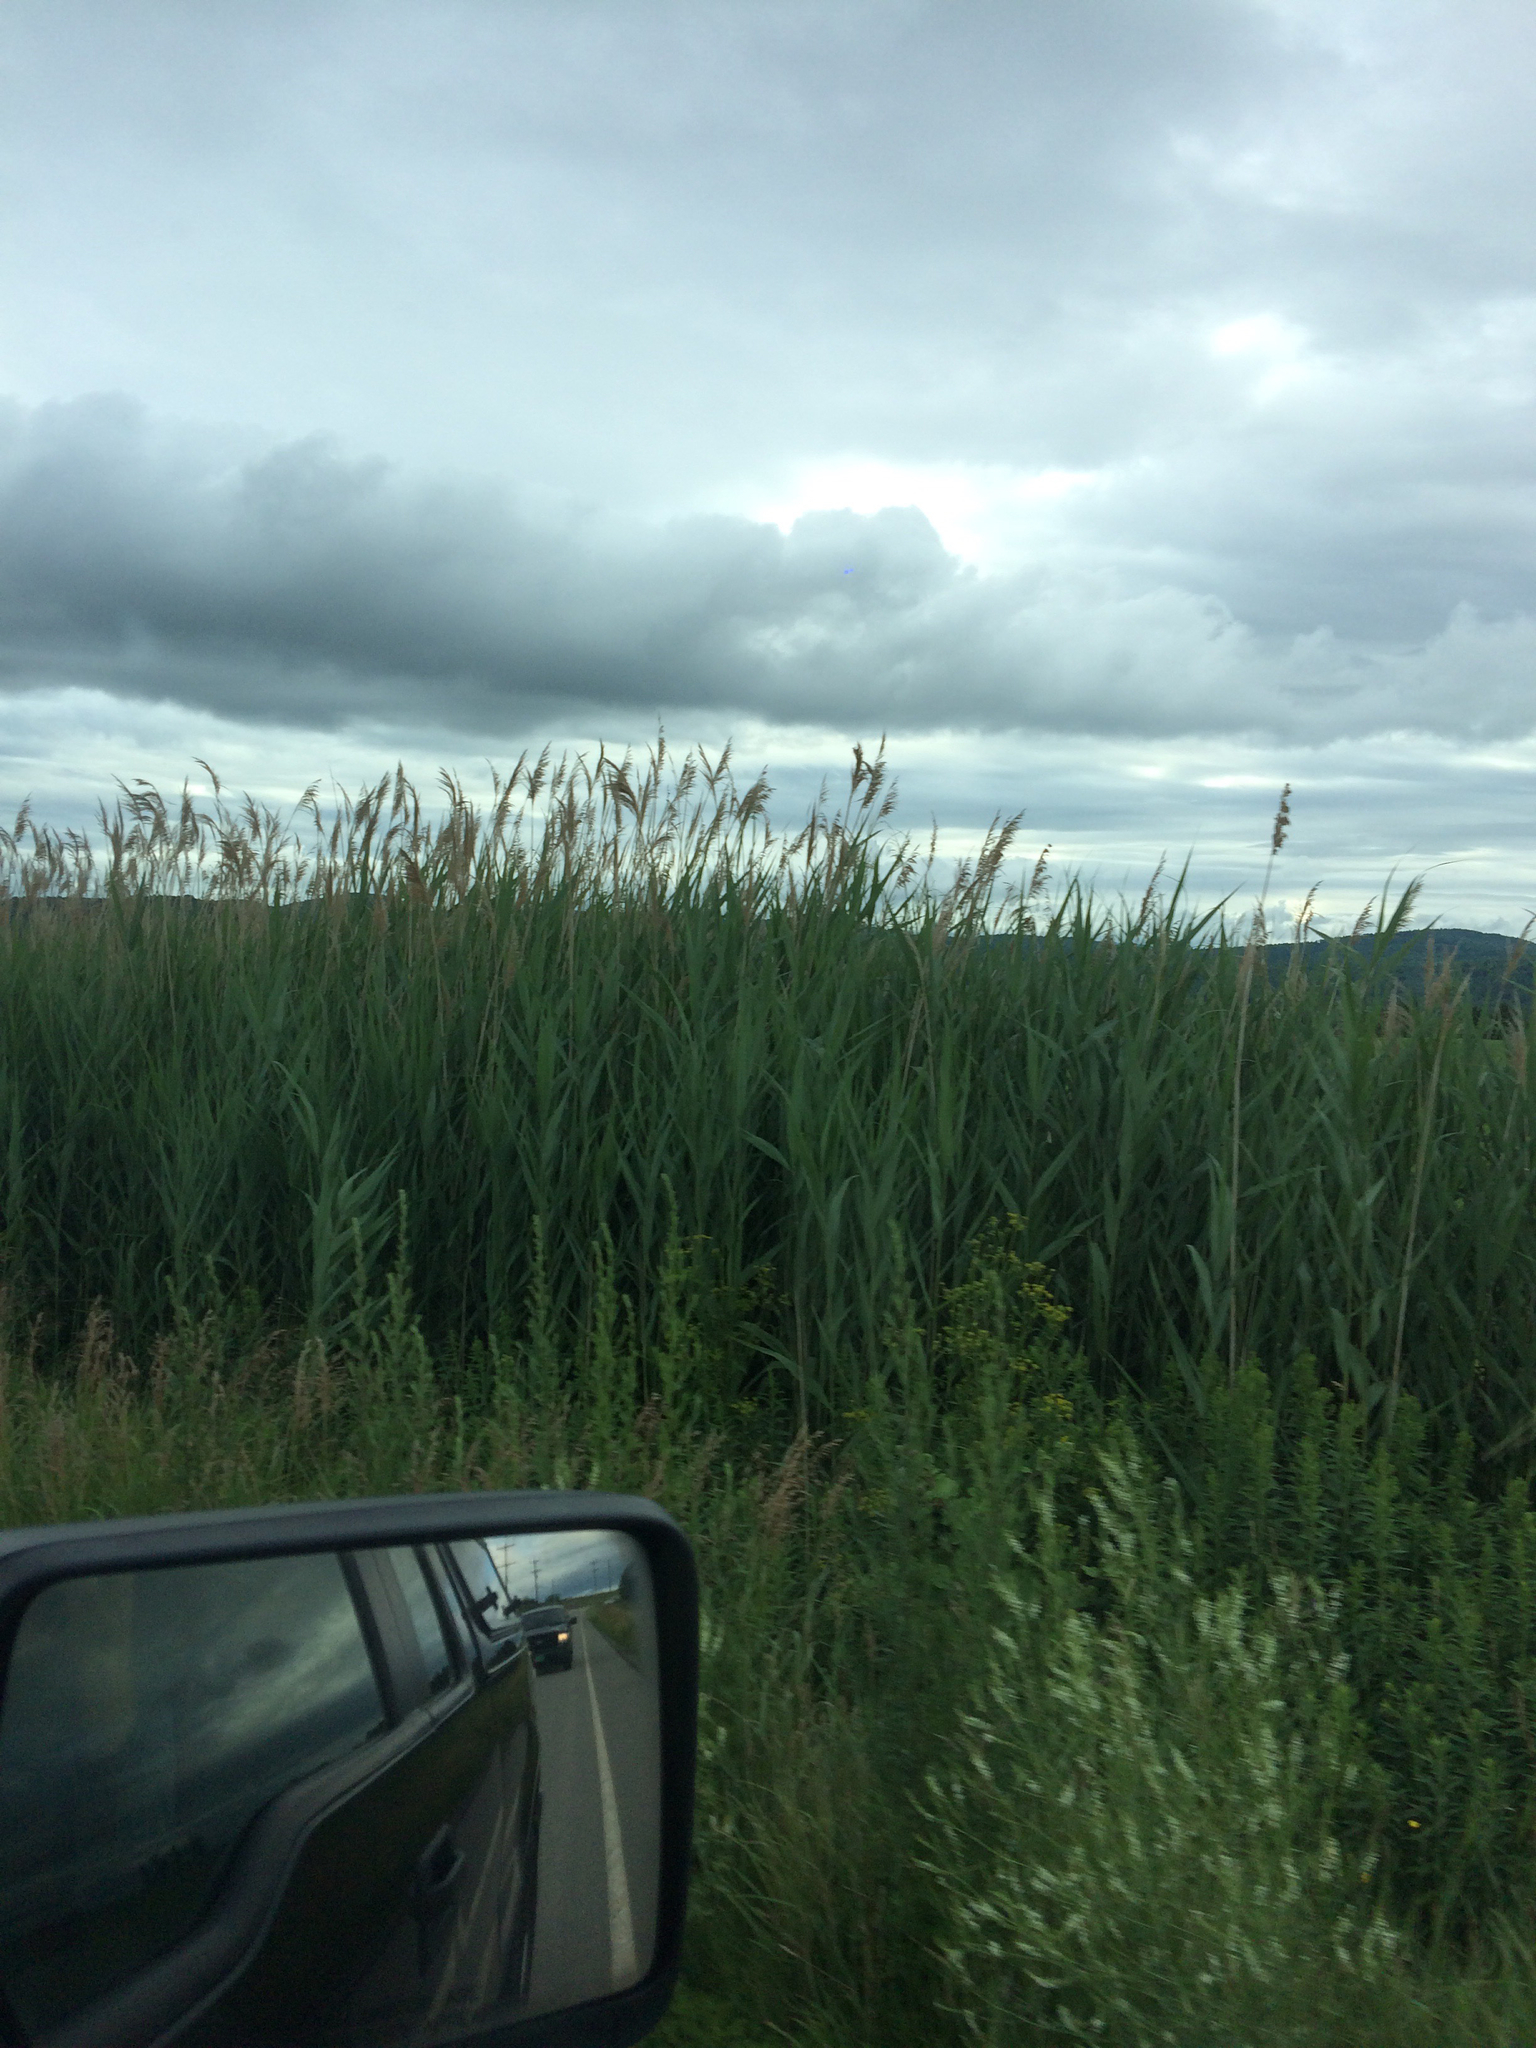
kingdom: Plantae
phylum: Tracheophyta
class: Liliopsida
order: Poales
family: Poaceae
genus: Phragmites
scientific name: Phragmites australis
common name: Common reed
